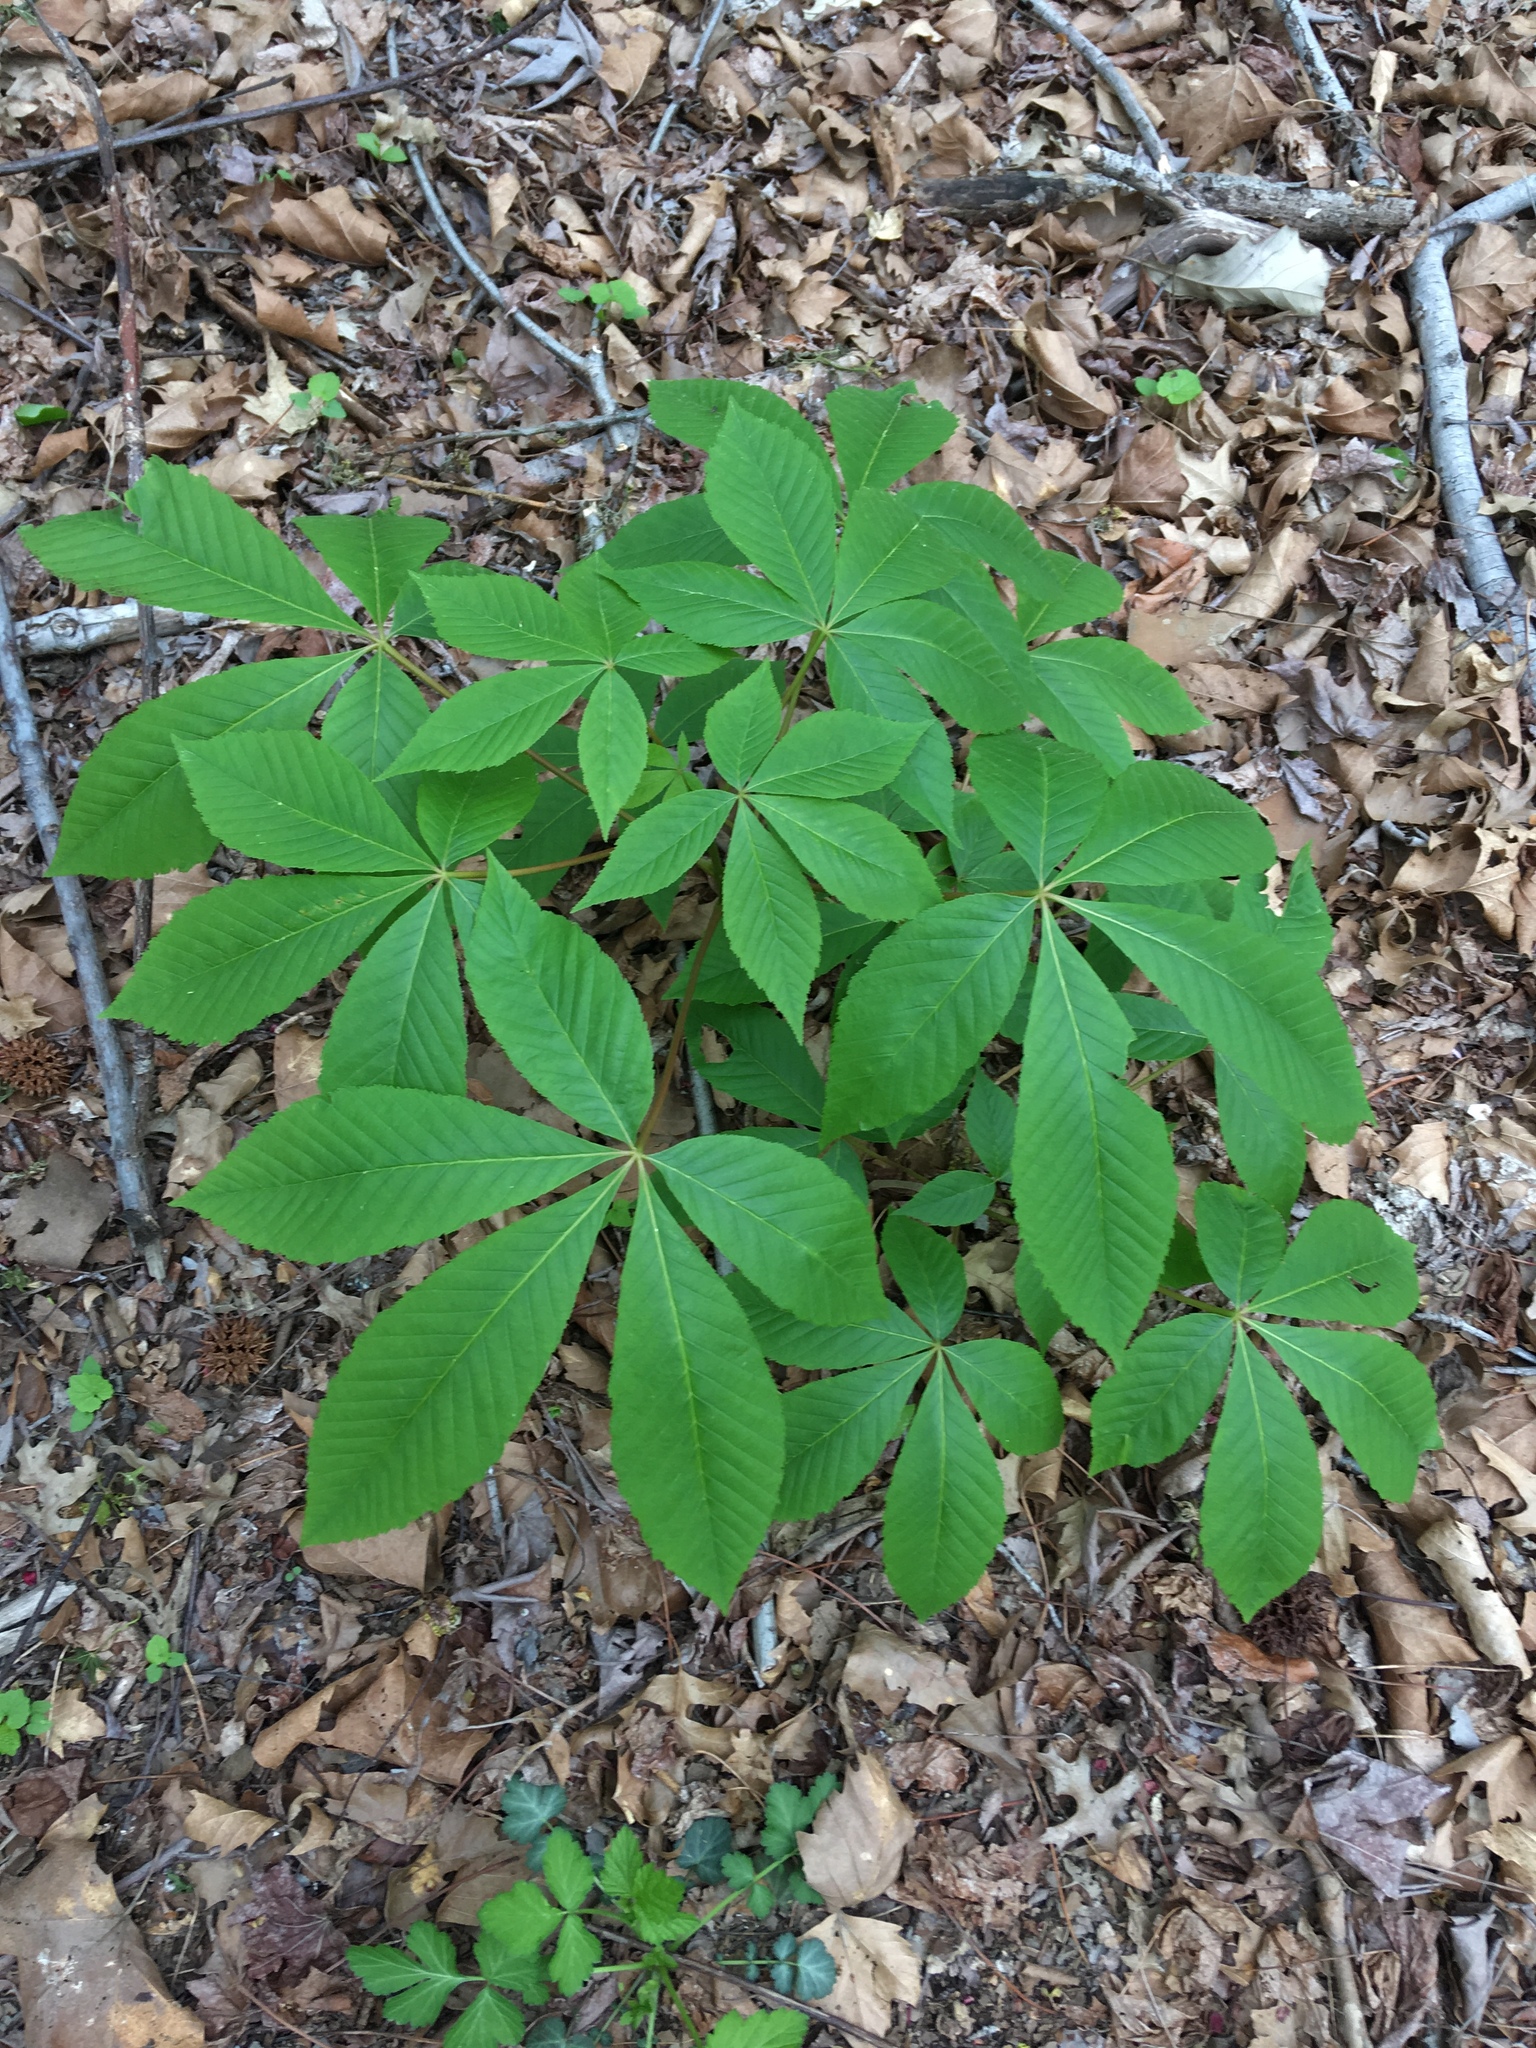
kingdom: Plantae
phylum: Tracheophyta
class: Magnoliopsida
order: Sapindales
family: Sapindaceae
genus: Aesculus
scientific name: Aesculus glabra
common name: Ohio buckeye
